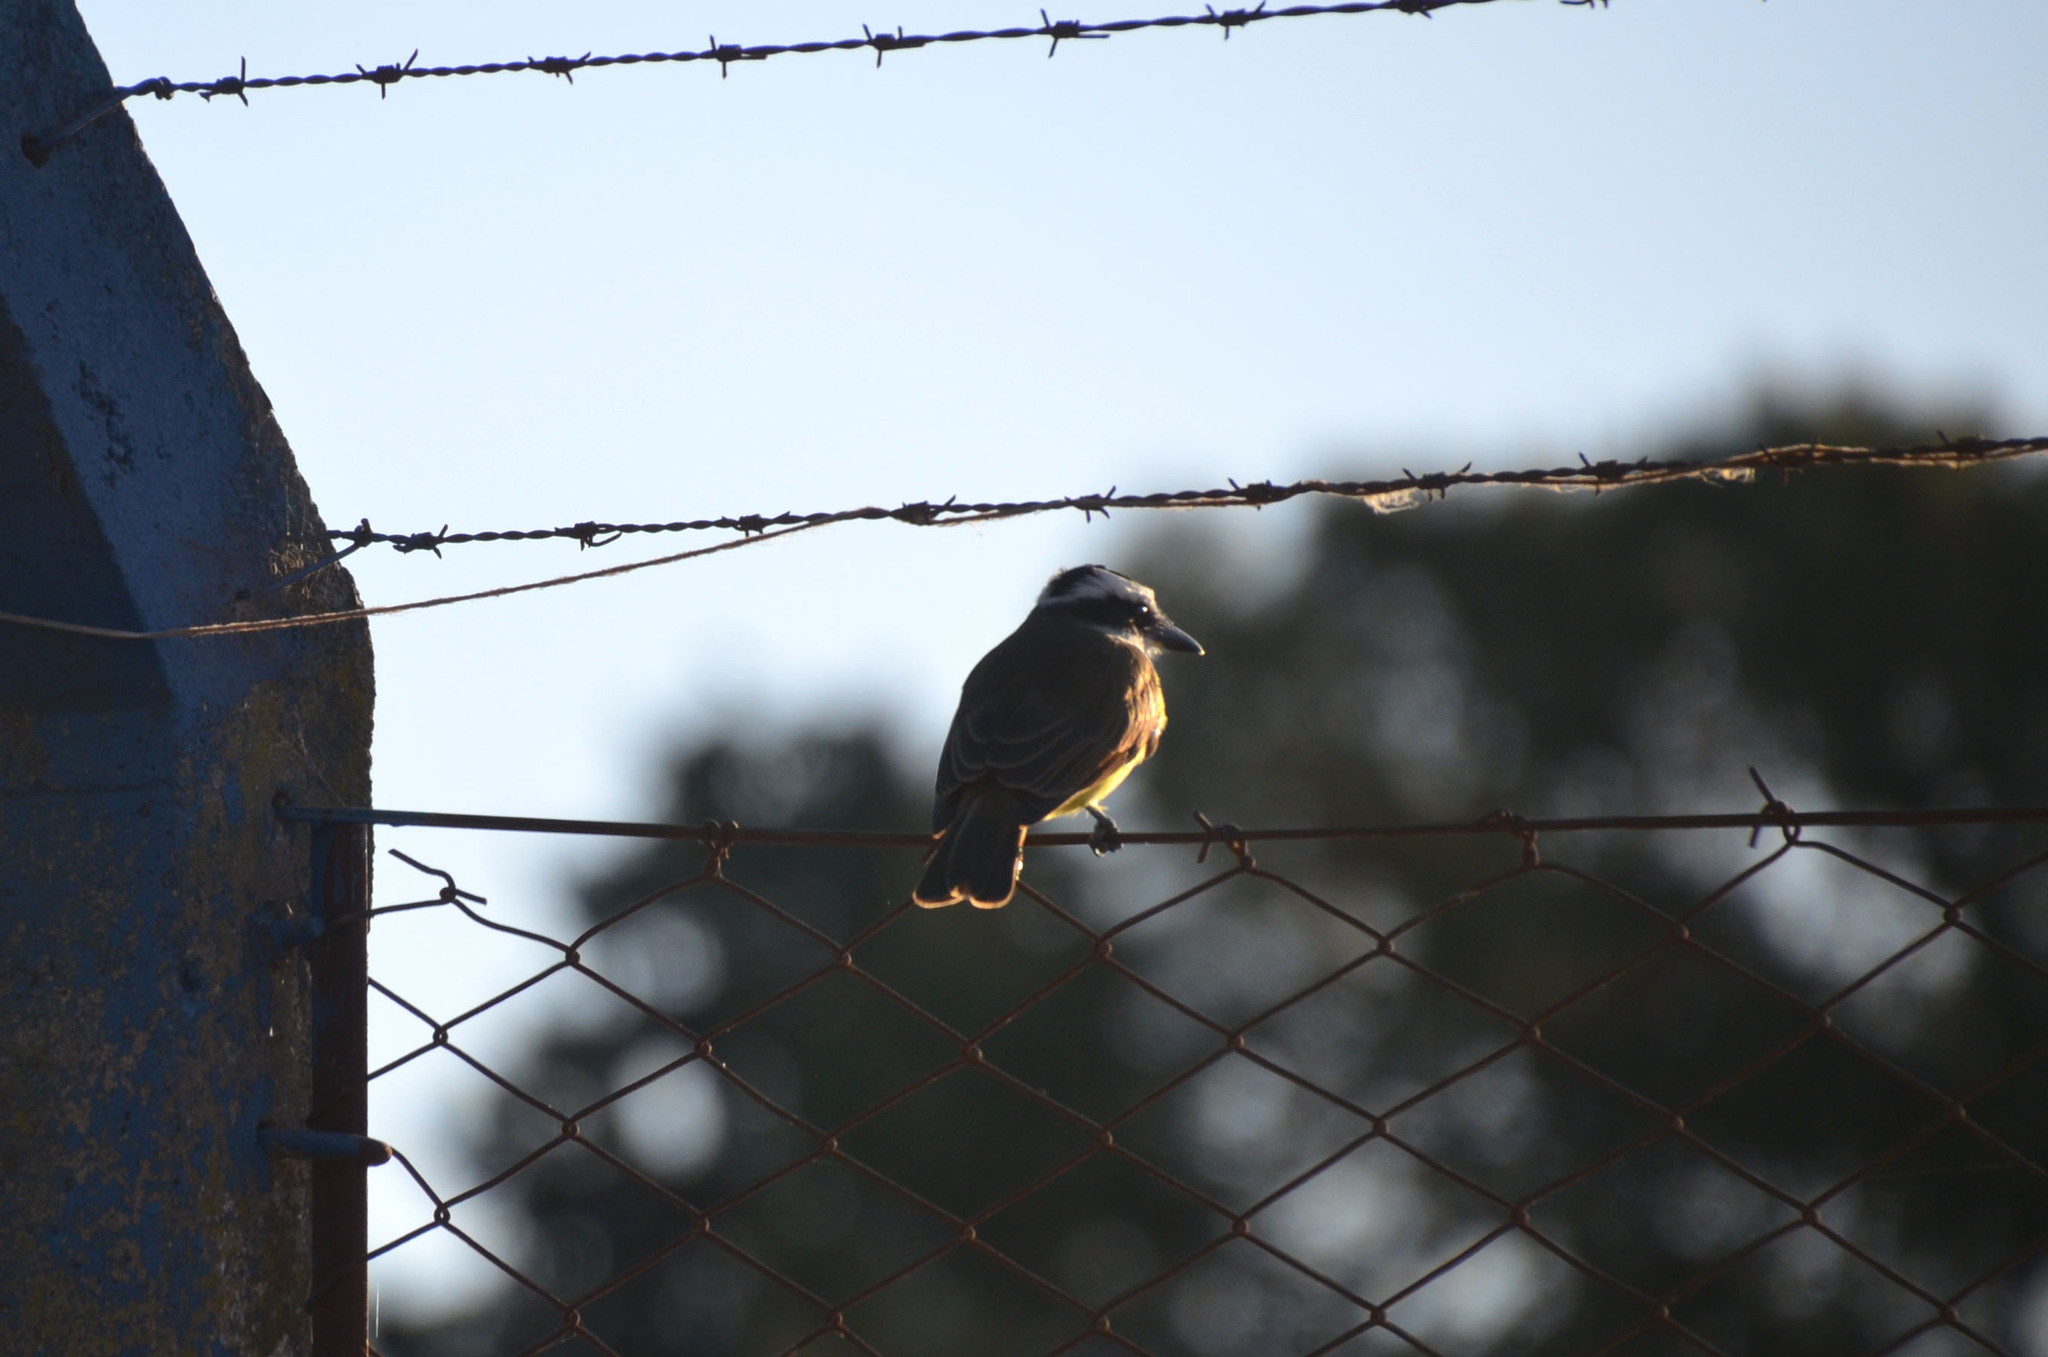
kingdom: Animalia
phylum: Chordata
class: Aves
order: Passeriformes
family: Tyrannidae
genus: Pitangus
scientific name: Pitangus sulphuratus
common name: Great kiskadee
